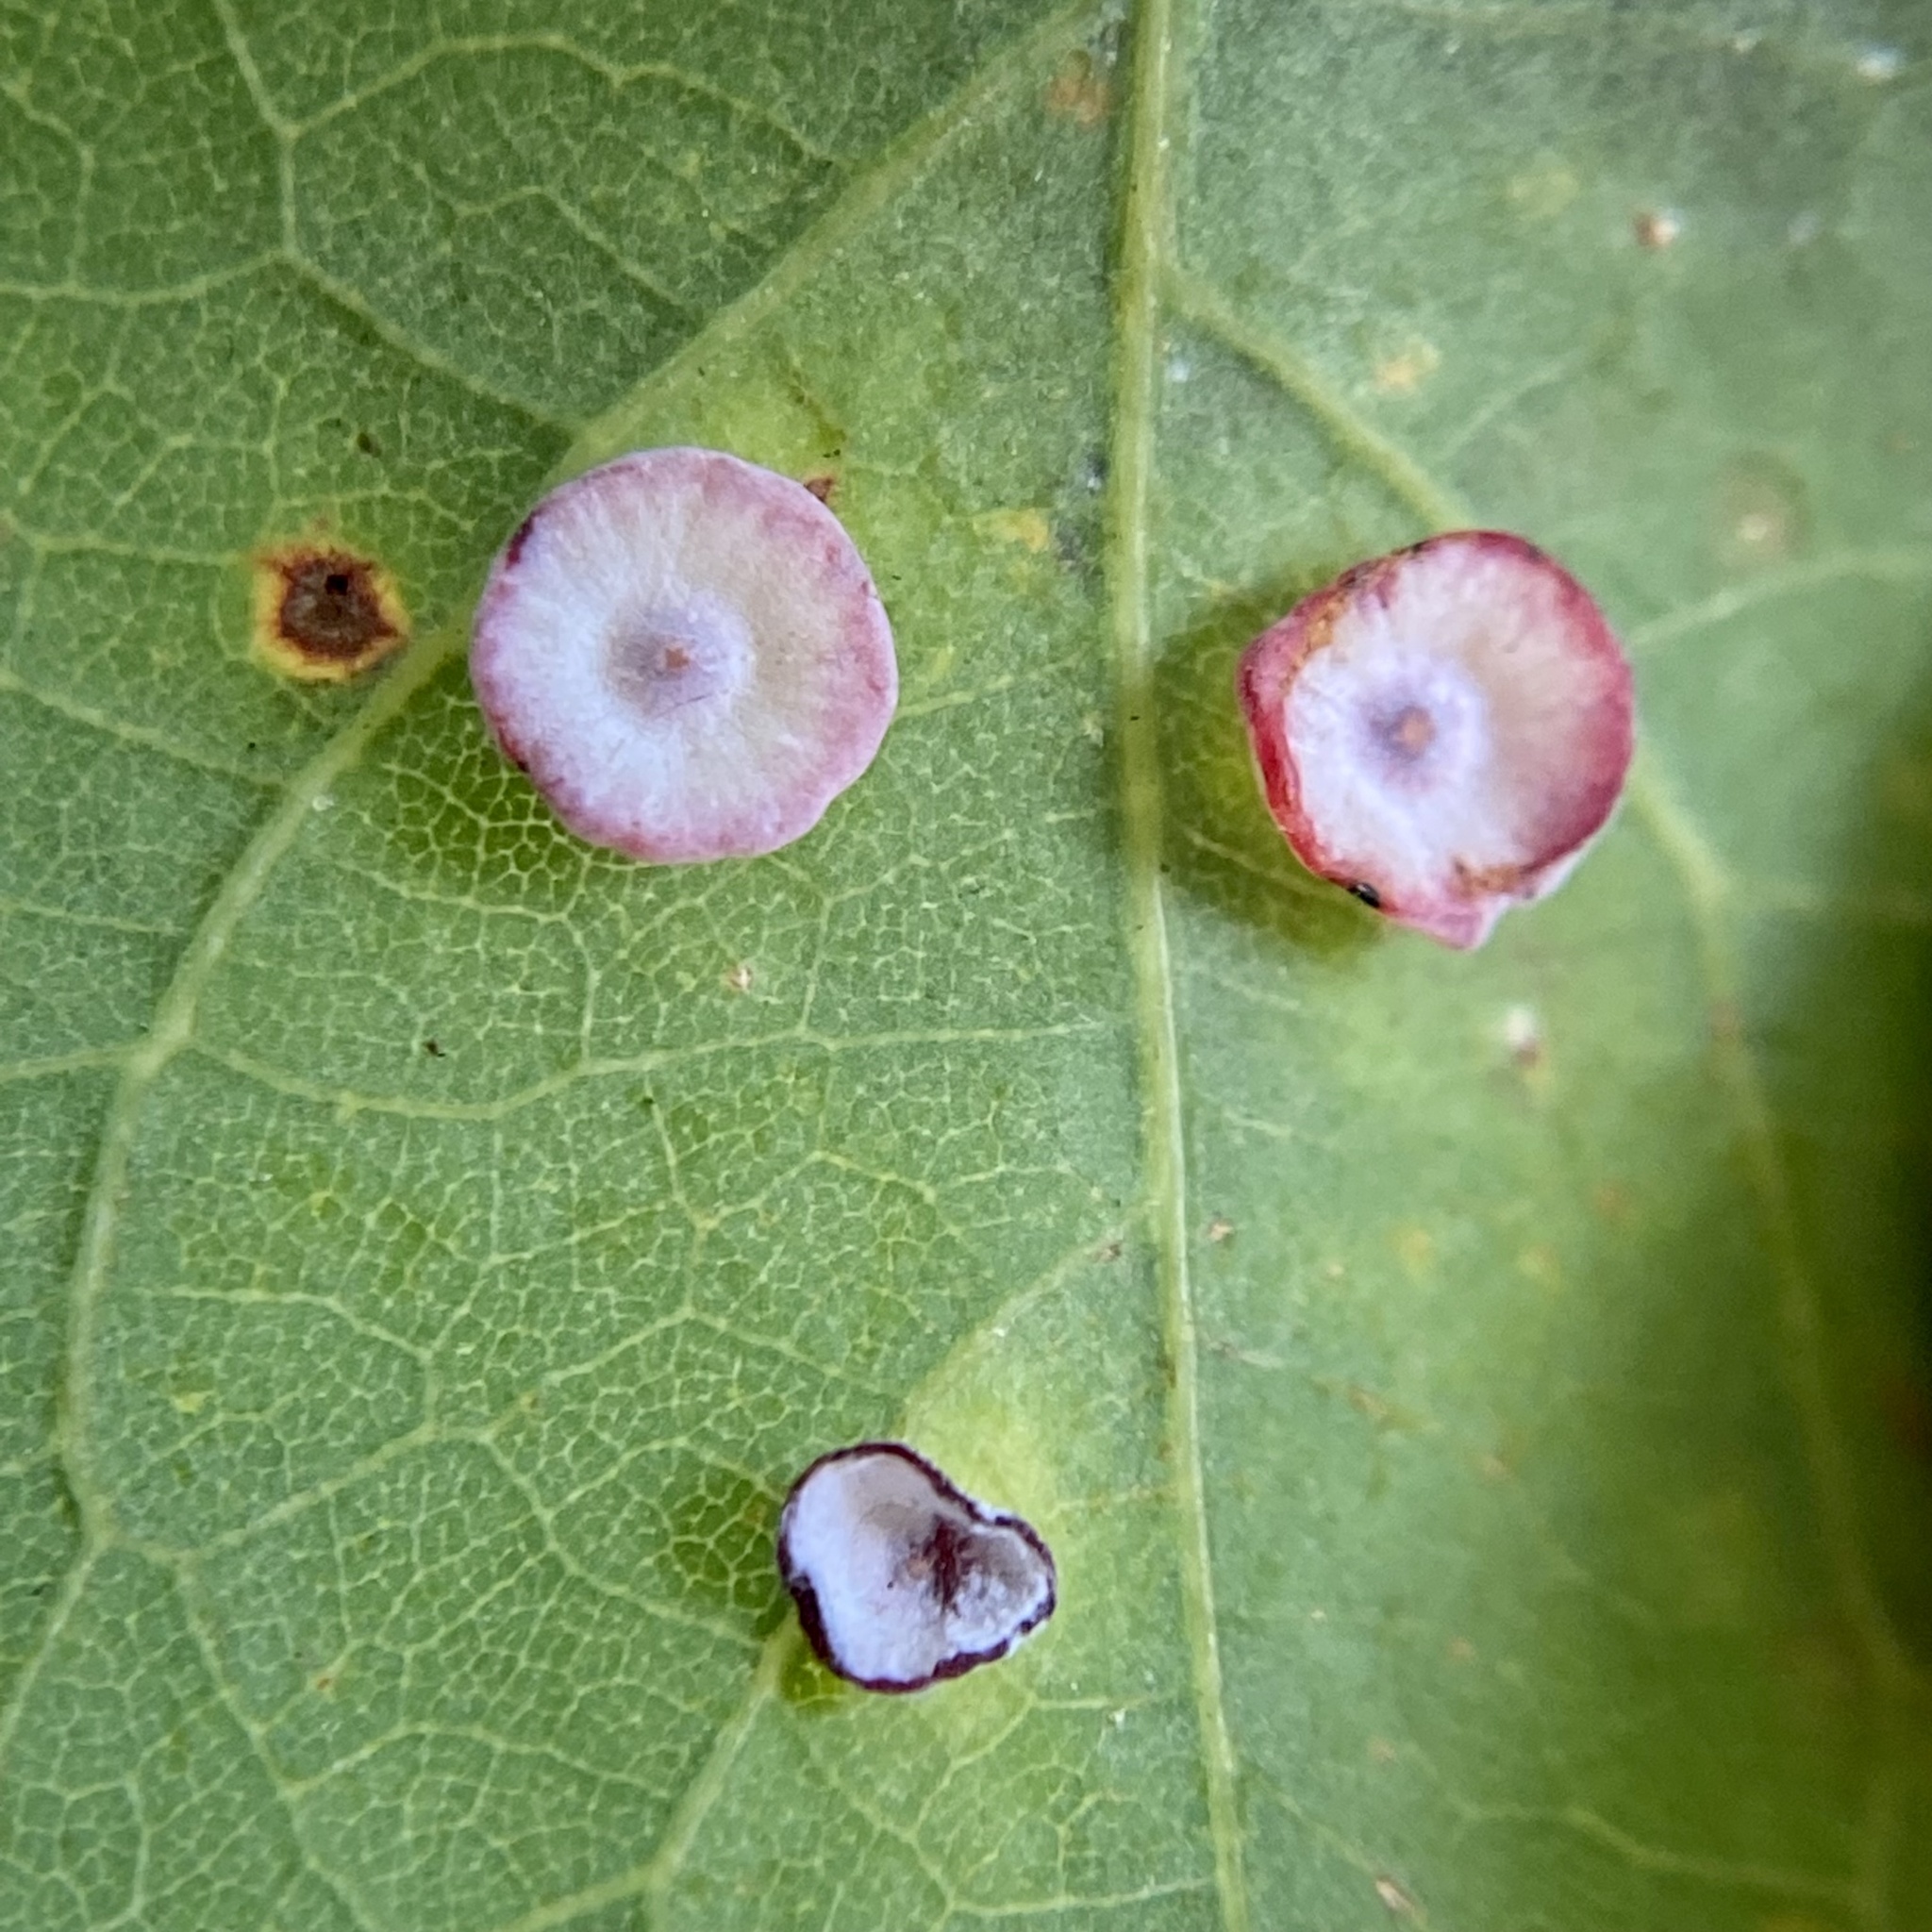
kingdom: Animalia
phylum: Arthropoda
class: Insecta
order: Hymenoptera
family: Cynipidae
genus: Phylloteras
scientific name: Phylloteras poculum
